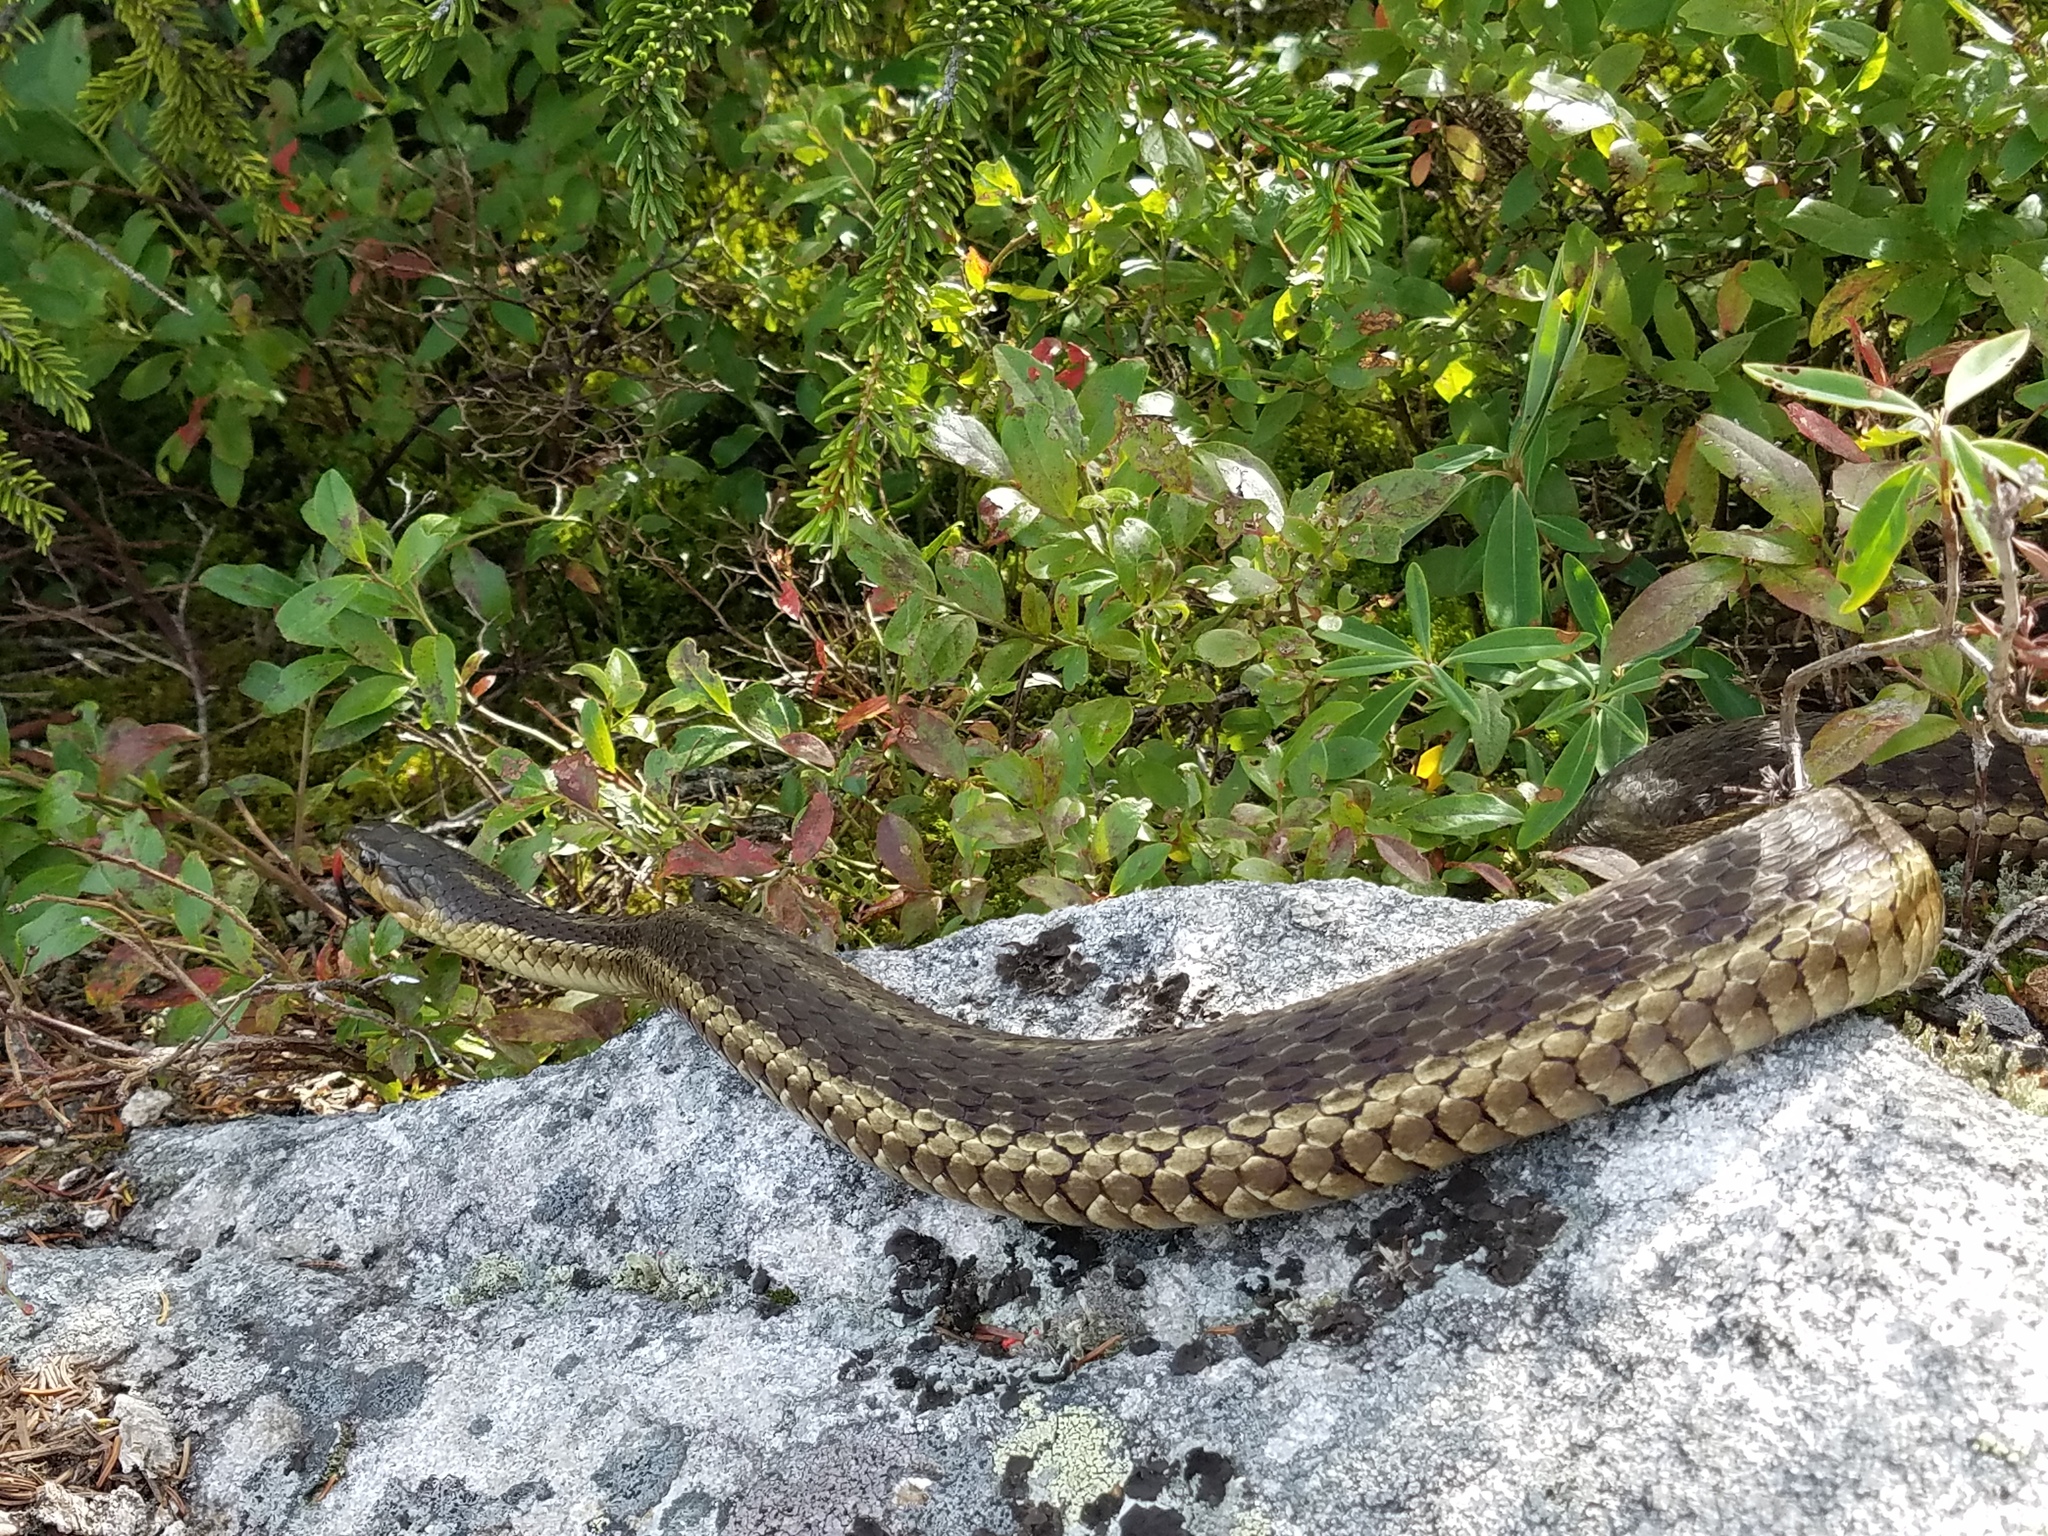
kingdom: Animalia
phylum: Chordata
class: Squamata
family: Colubridae
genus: Thamnophis
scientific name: Thamnophis sirtalis
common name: Common garter snake
